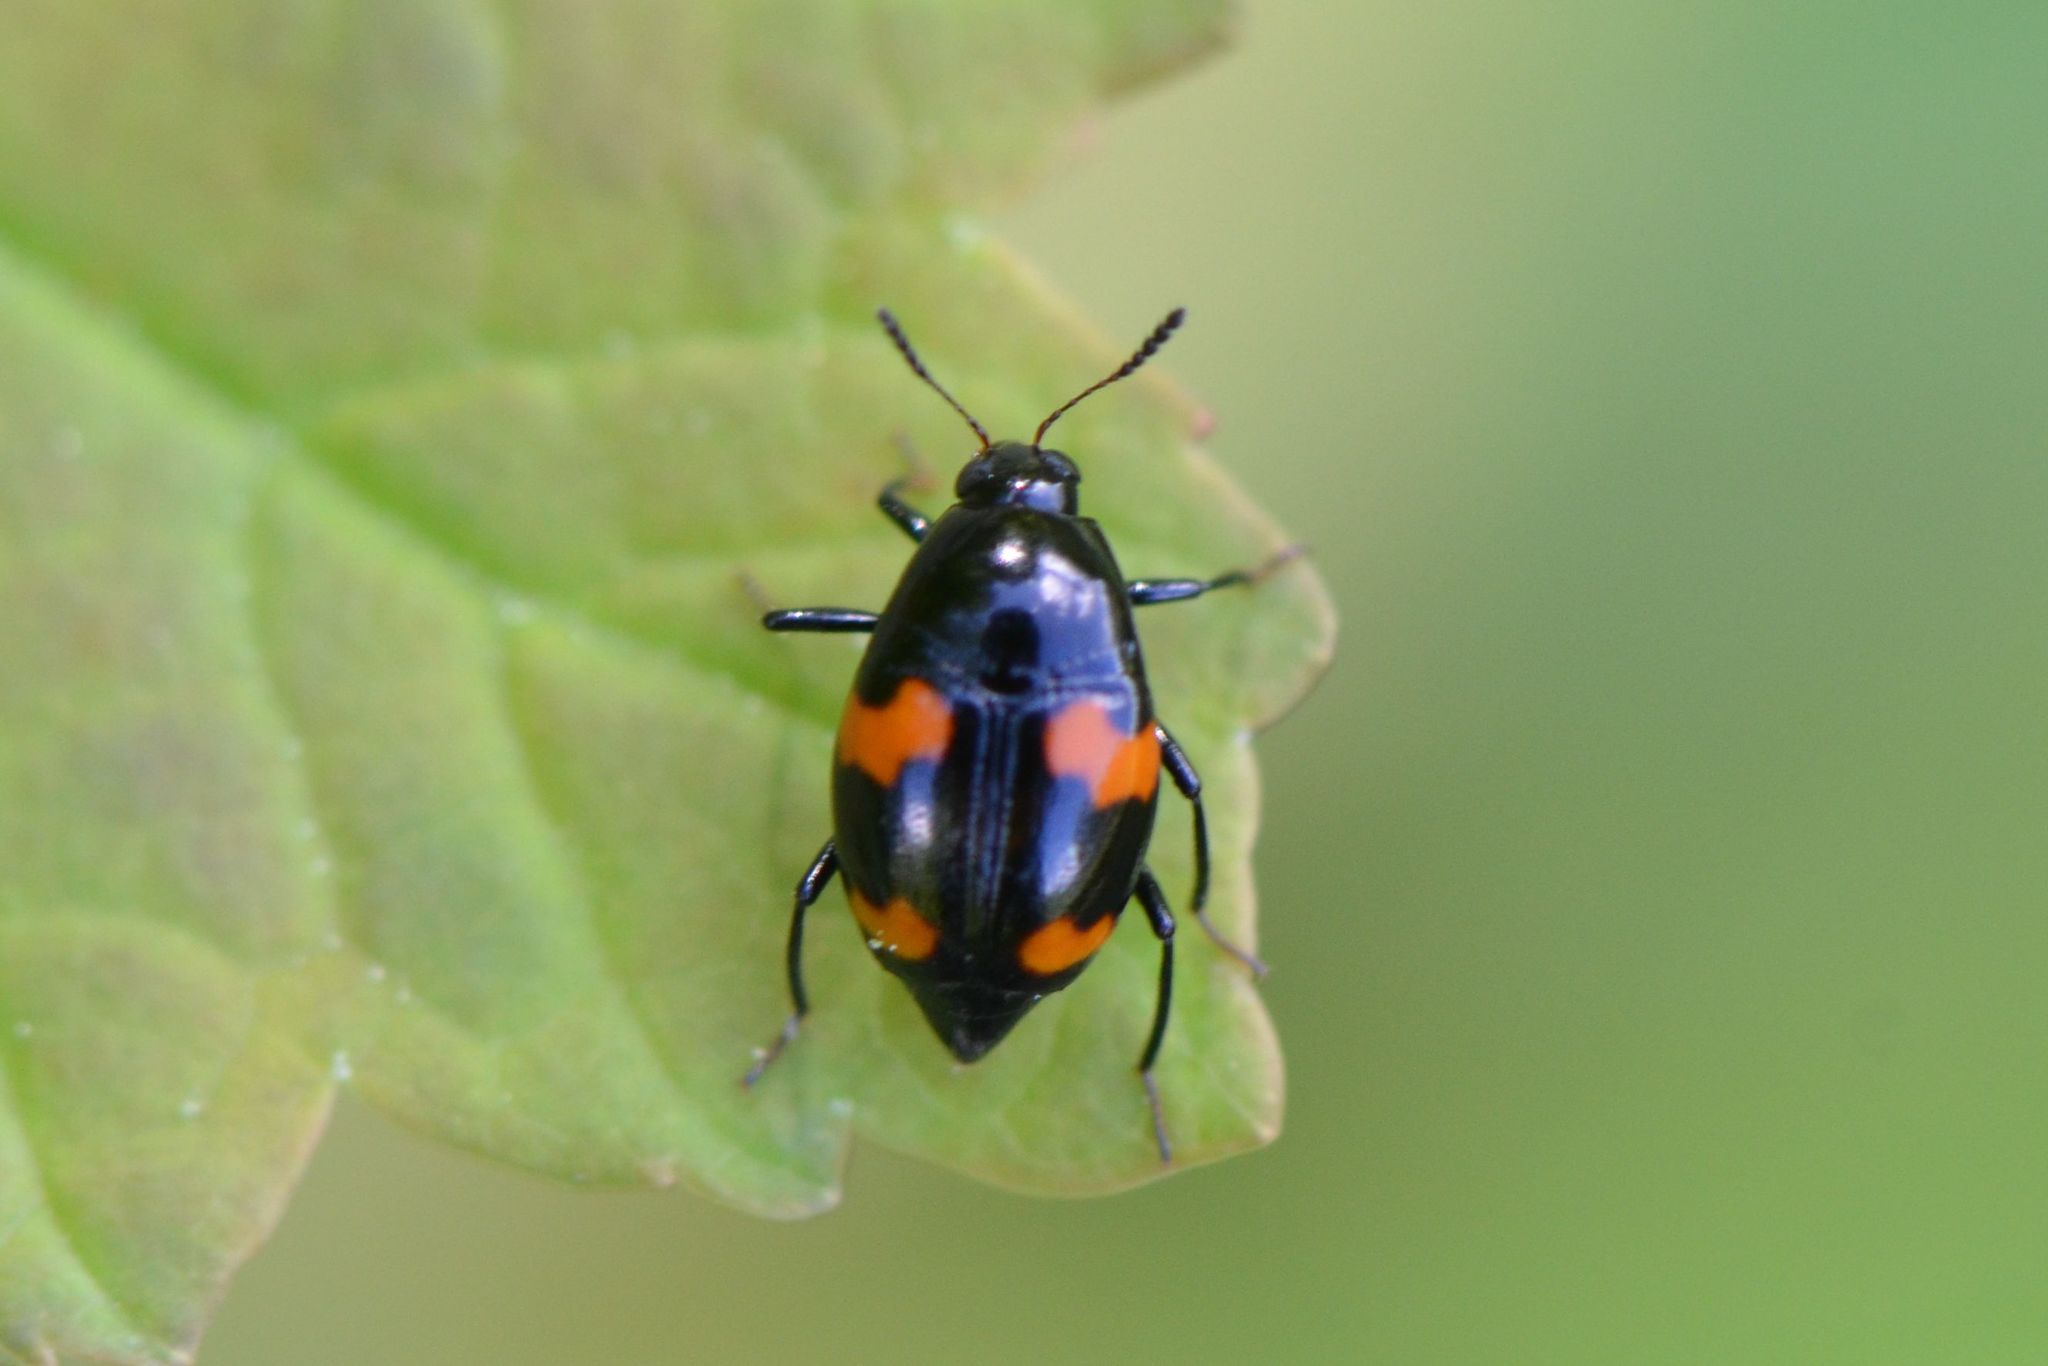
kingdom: Animalia
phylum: Arthropoda
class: Insecta
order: Coleoptera
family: Staphylinidae
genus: Scaphidium
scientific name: Scaphidium quadrimaculatum
